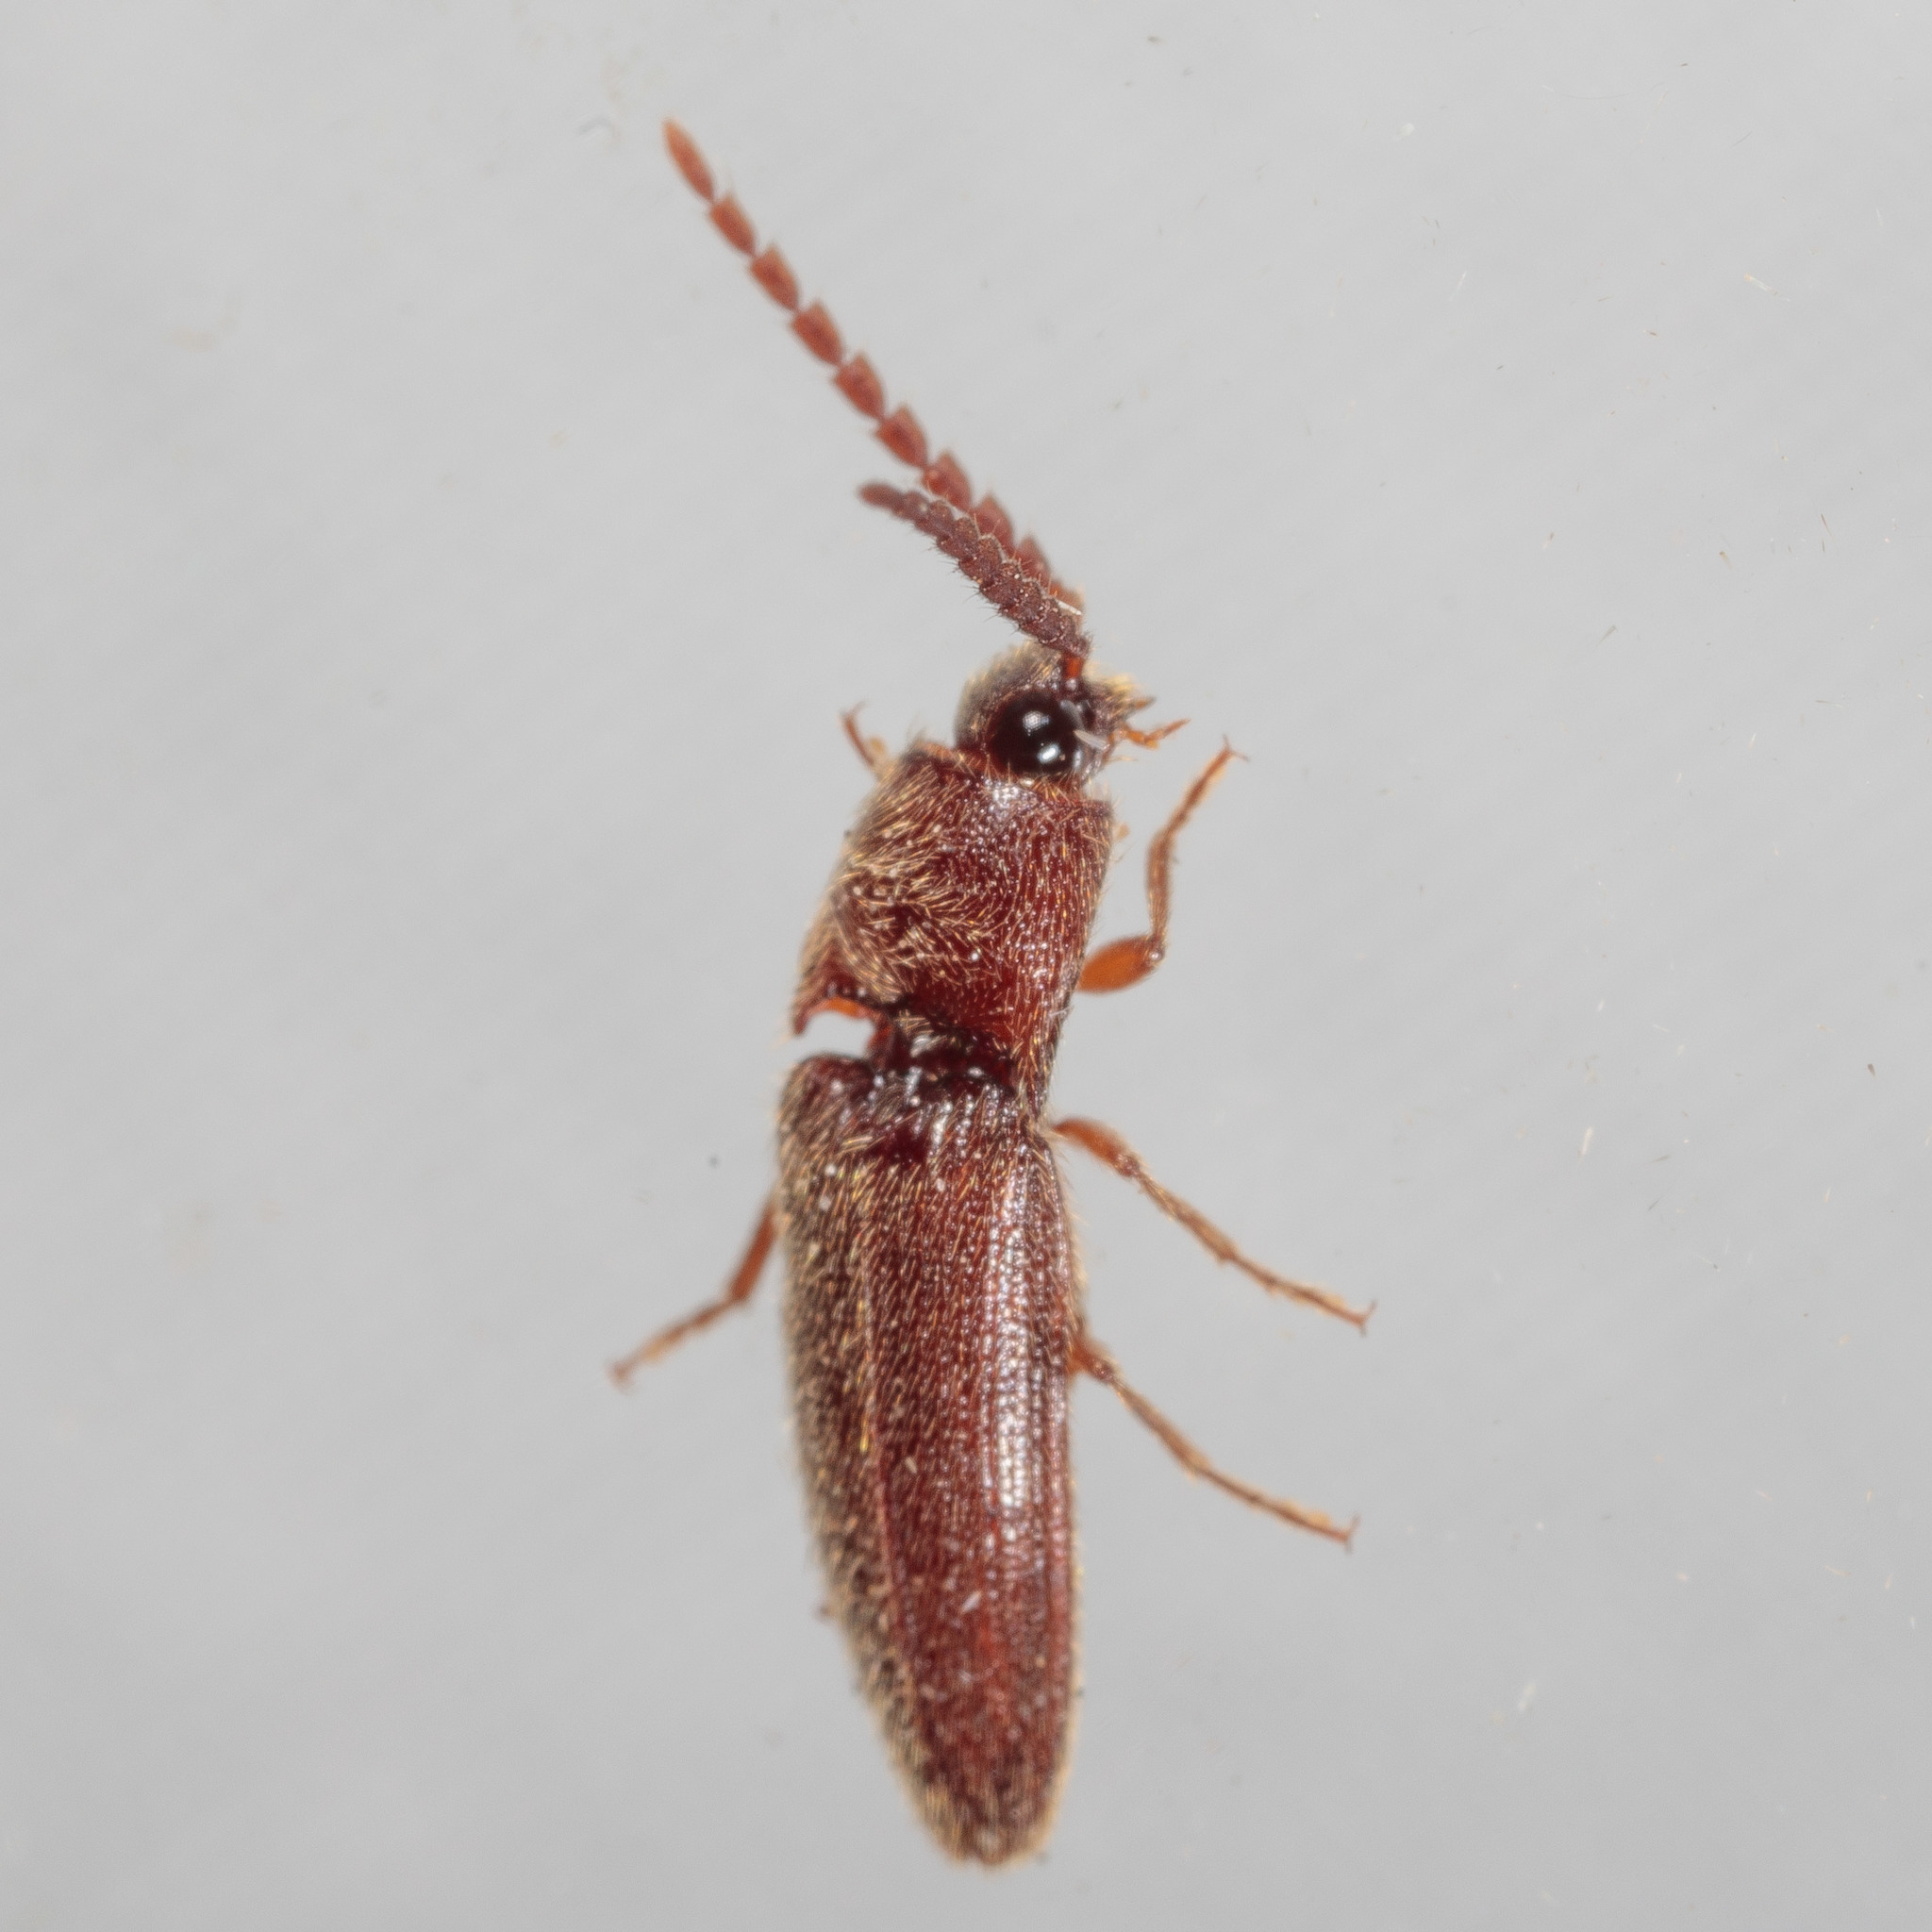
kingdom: Animalia
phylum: Arthropoda
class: Insecta
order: Coleoptera
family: Elateridae
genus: Dipropus
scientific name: Dipropus
